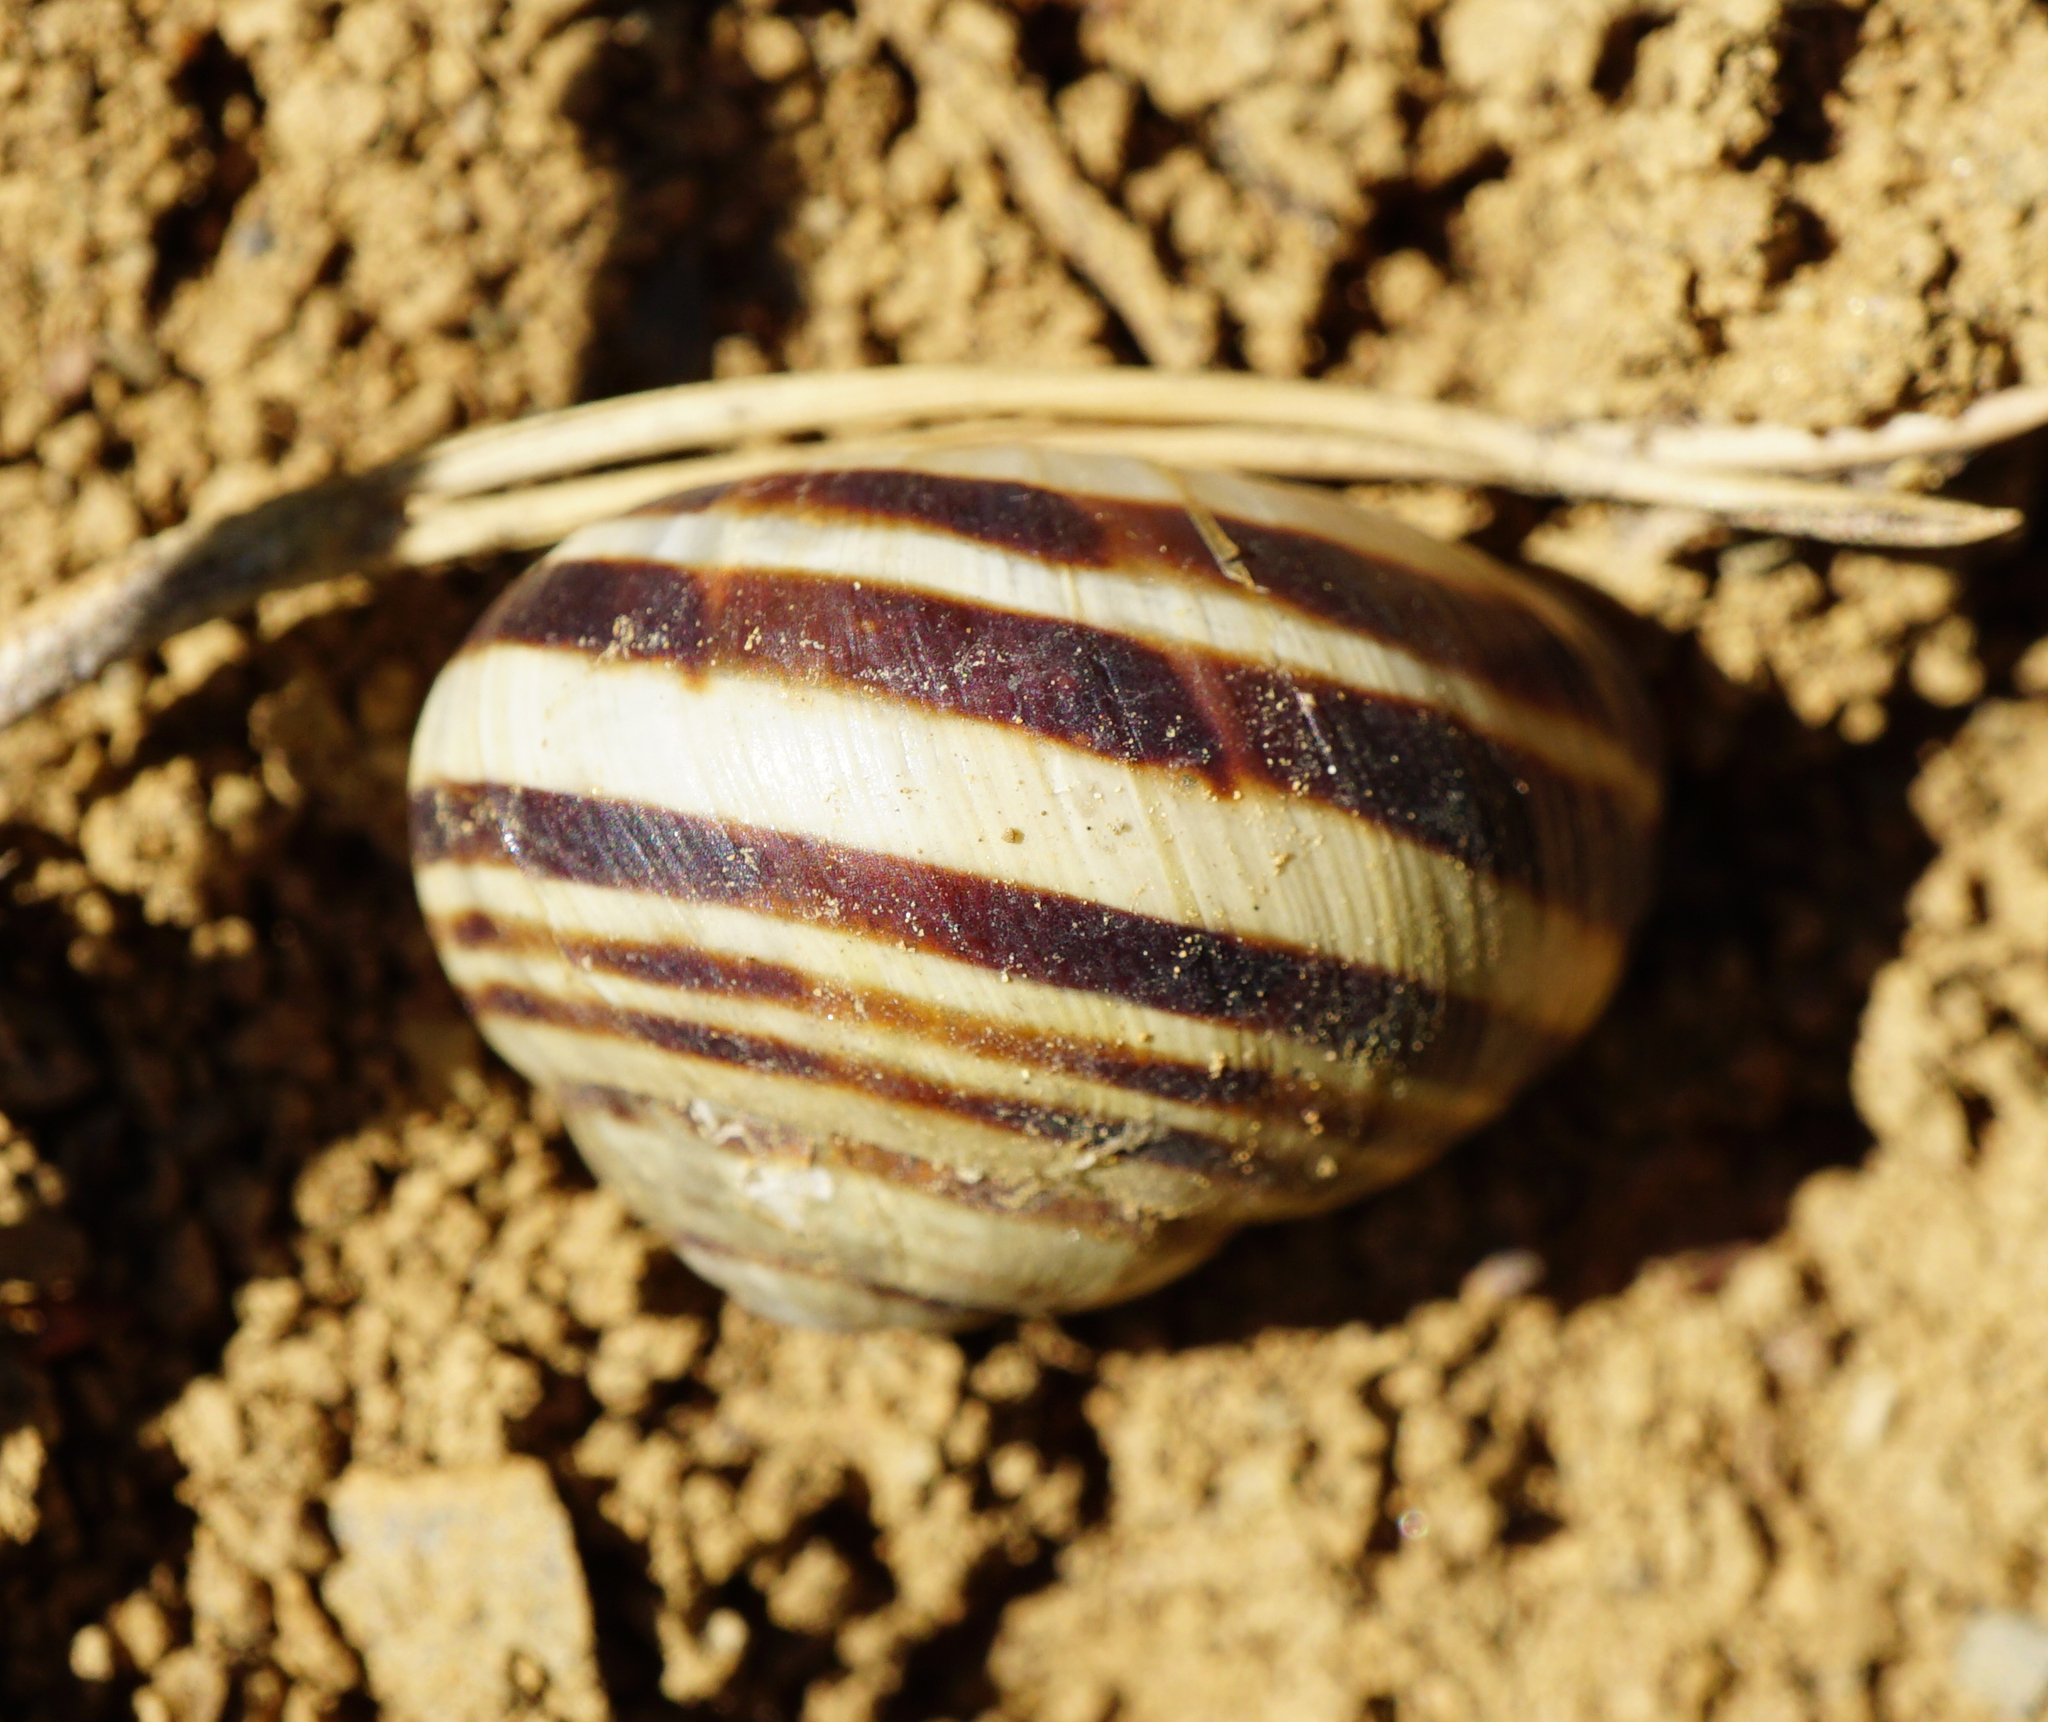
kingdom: Animalia
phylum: Mollusca
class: Gastropoda
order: Stylommatophora
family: Helicidae
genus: Cepaea
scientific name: Cepaea hortensis
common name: White-lip gardensnail
